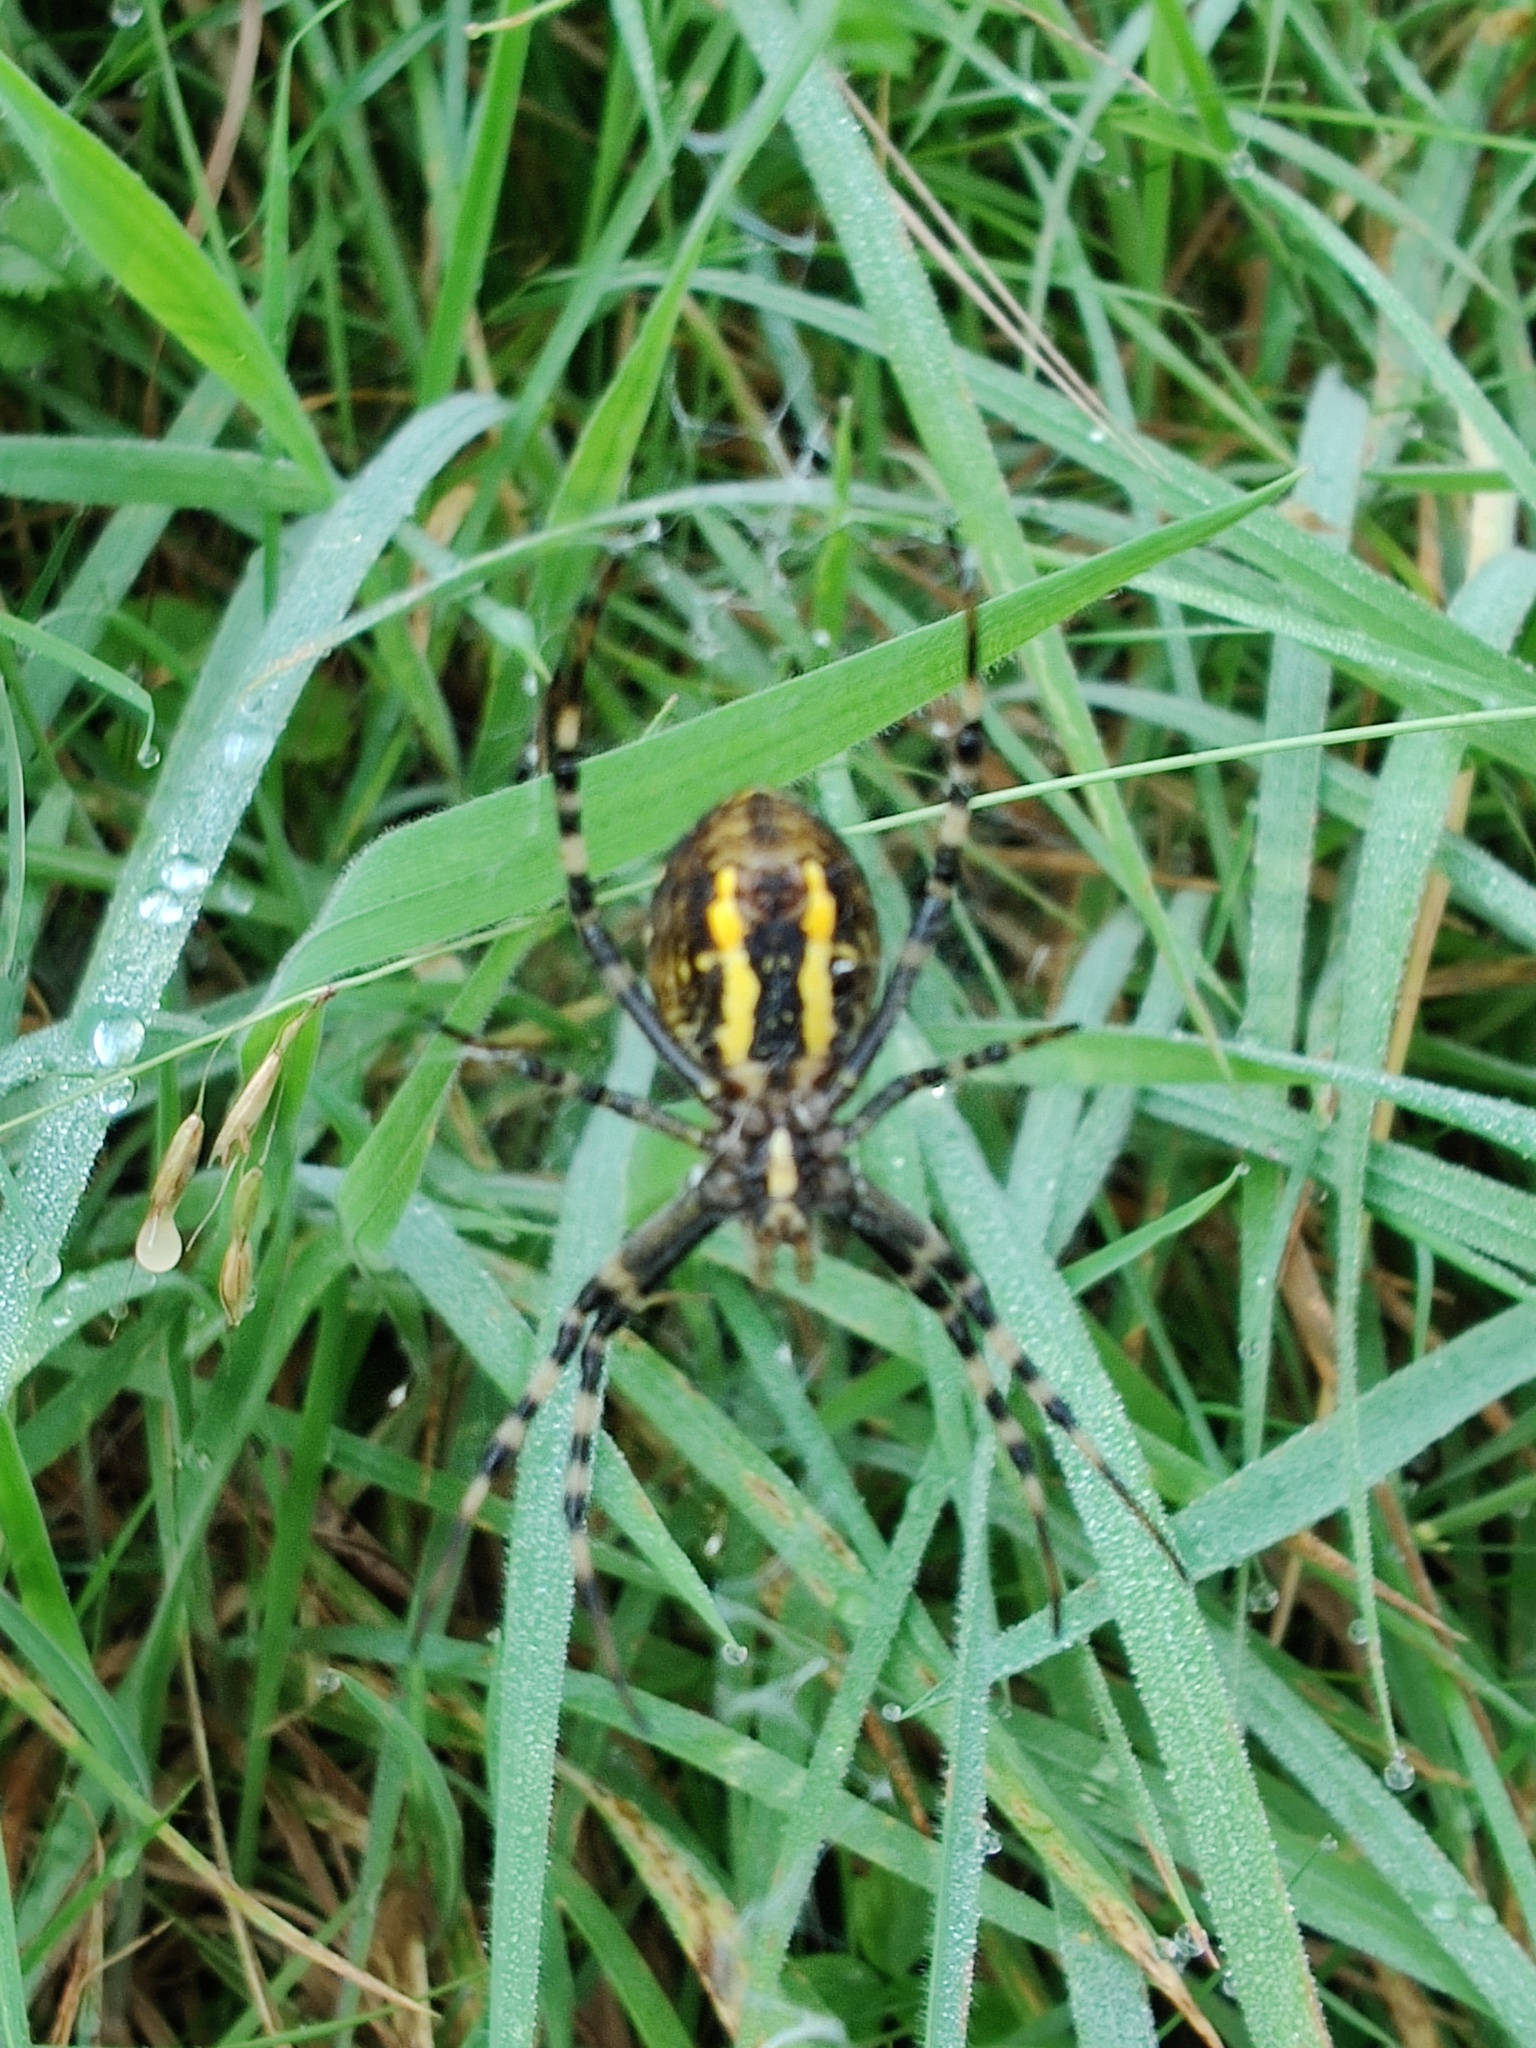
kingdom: Animalia
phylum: Arthropoda
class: Arachnida
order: Araneae
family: Araneidae
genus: Argiope
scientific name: Argiope bruennichi
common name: Wasp spider
